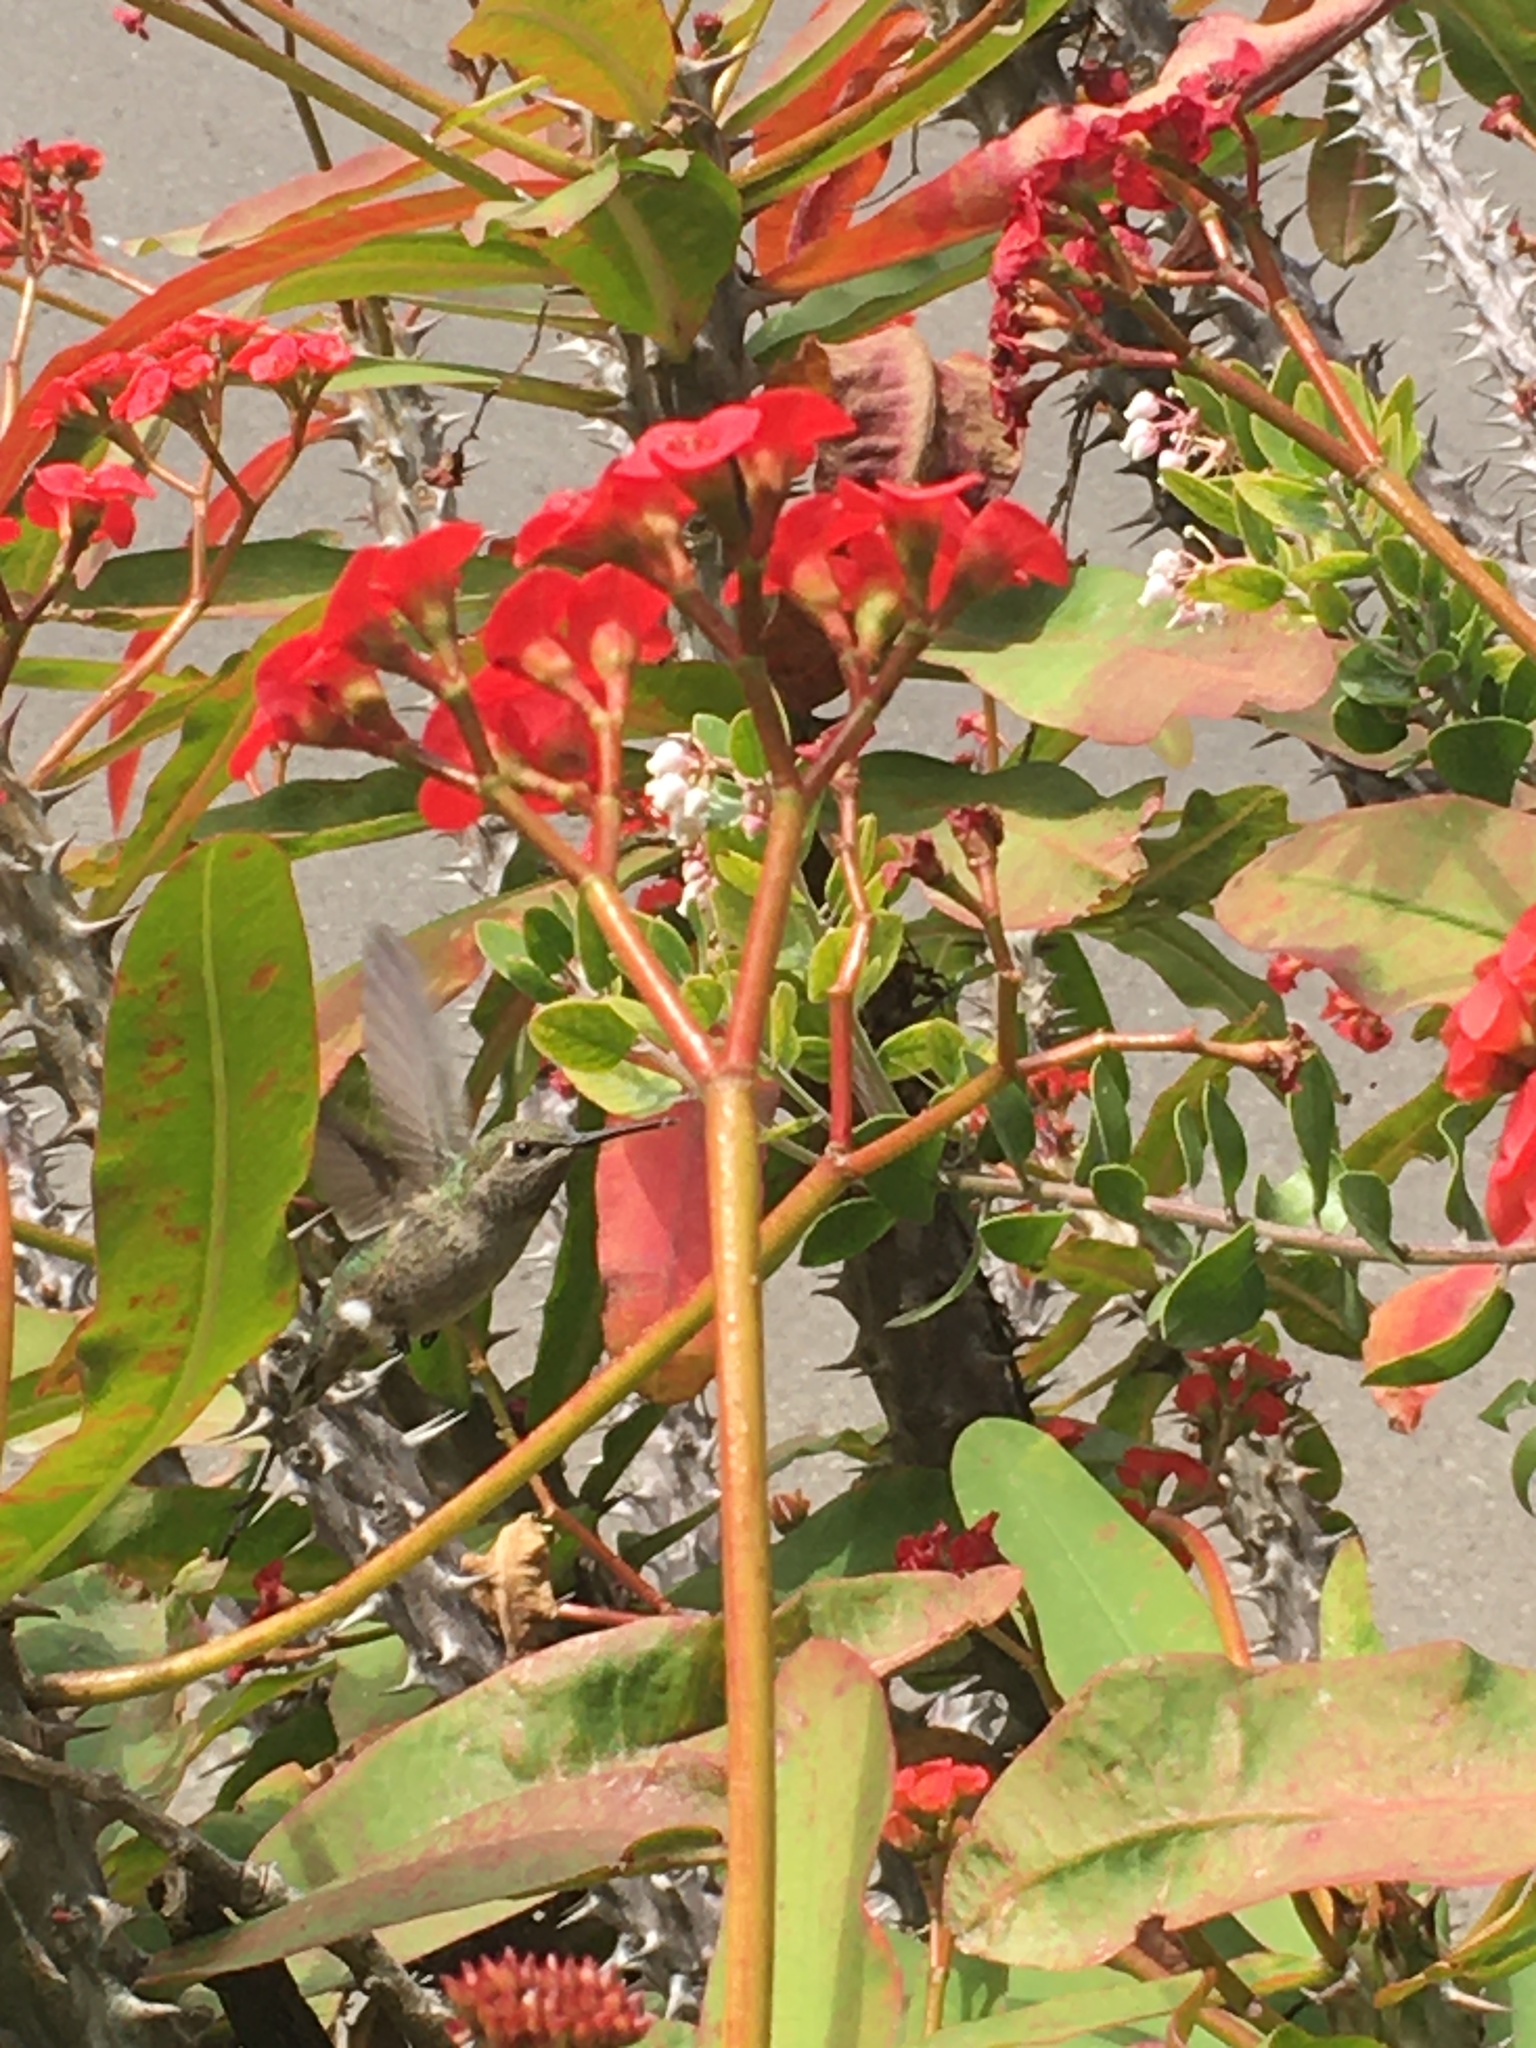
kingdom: Animalia
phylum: Chordata
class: Aves
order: Apodiformes
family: Trochilidae
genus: Calypte
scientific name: Calypte anna
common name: Anna's hummingbird
